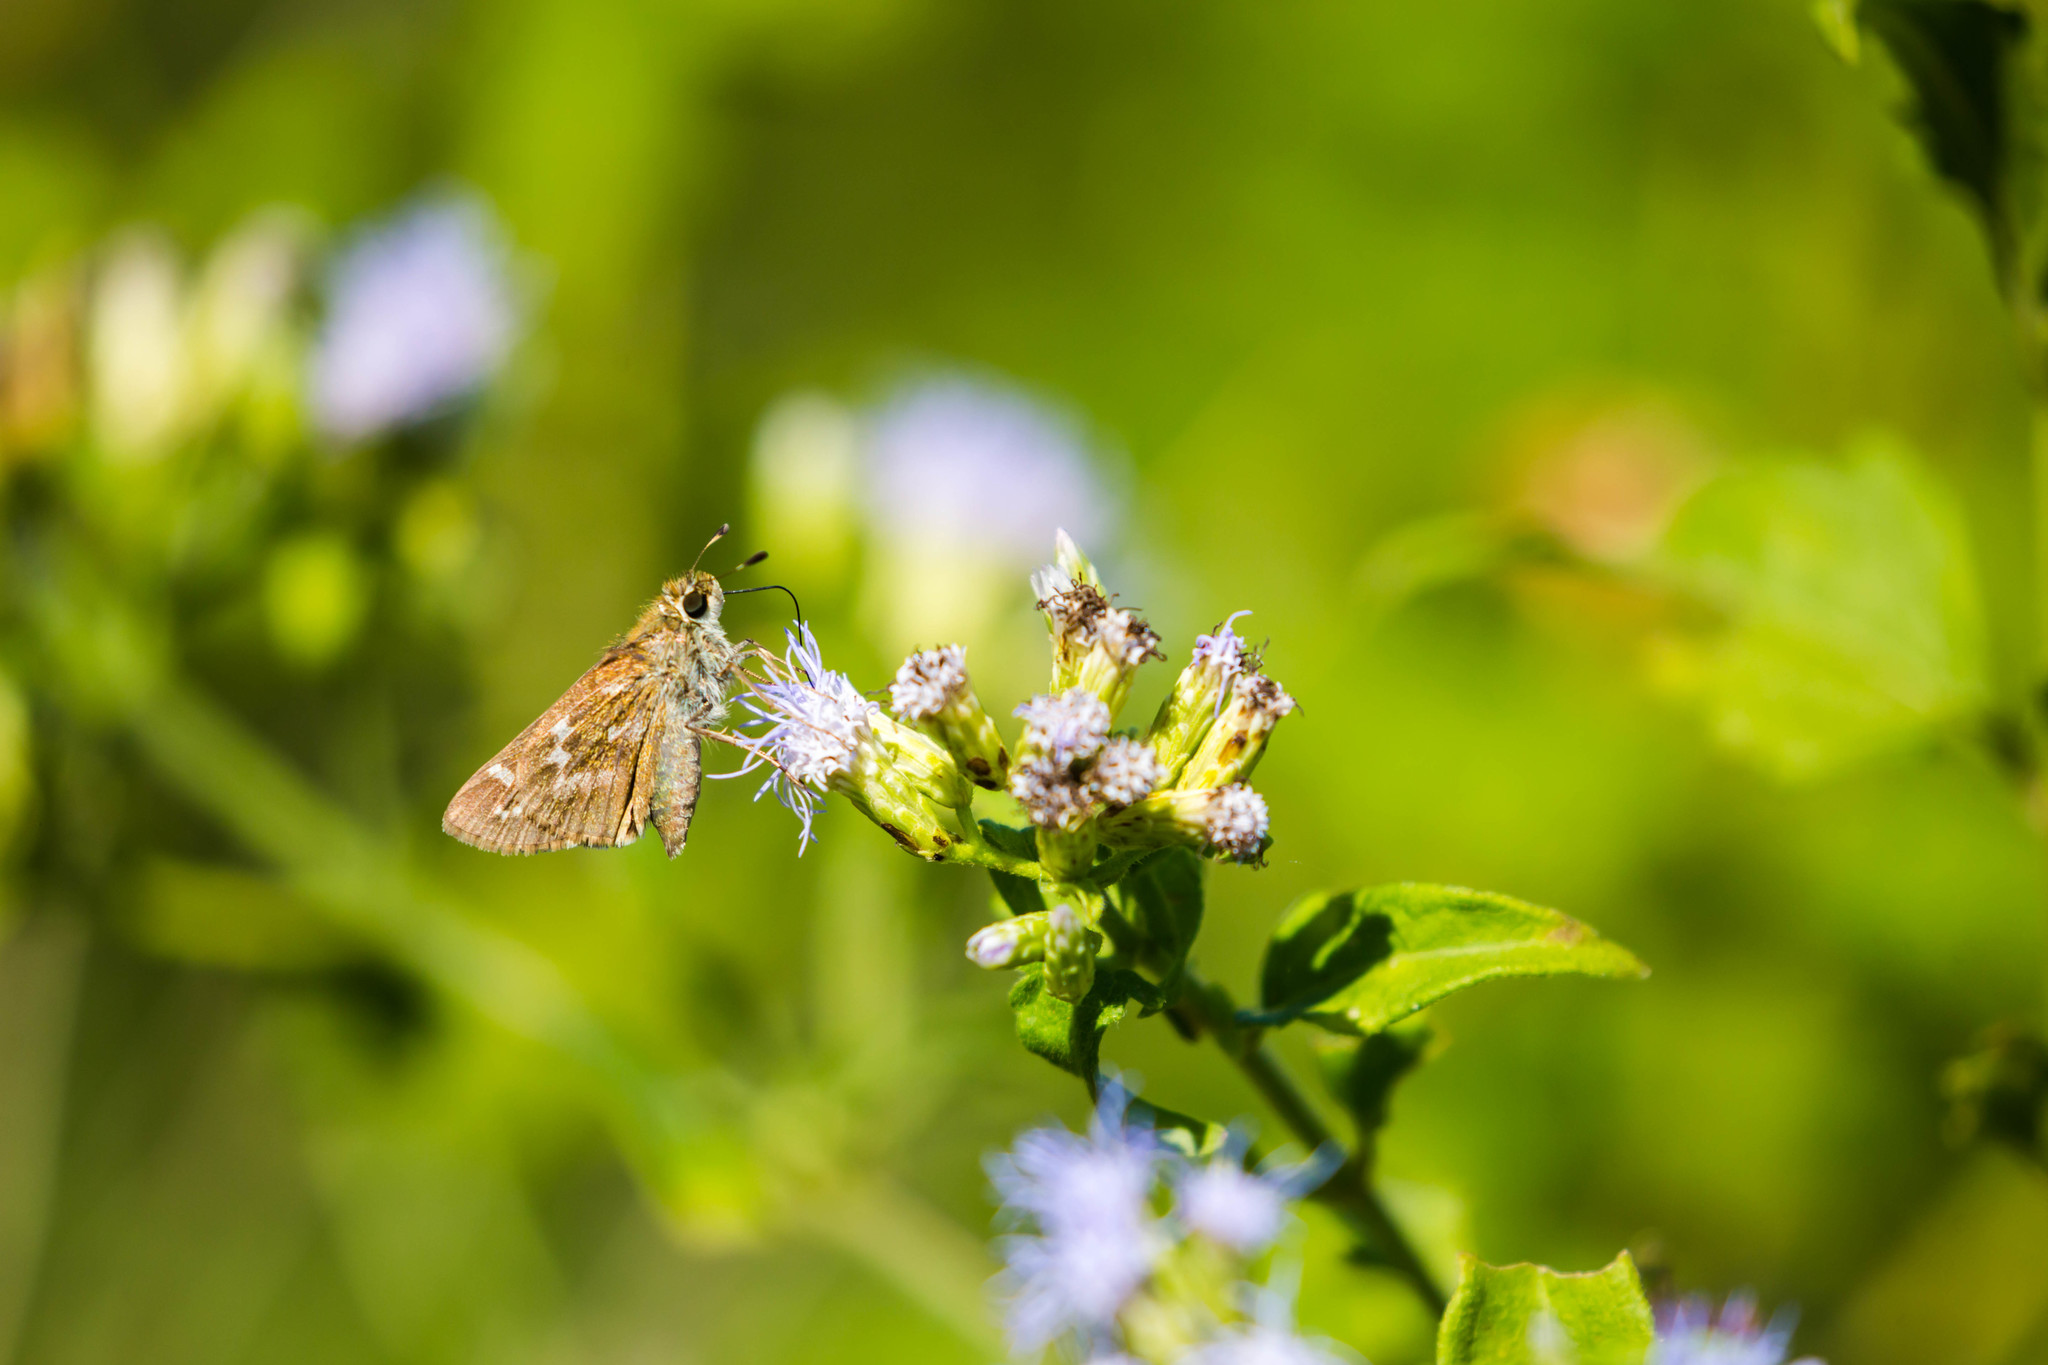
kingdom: Animalia
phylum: Arthropoda
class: Insecta
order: Lepidoptera
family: Hesperiidae
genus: Atalopedes
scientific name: Atalopedes
